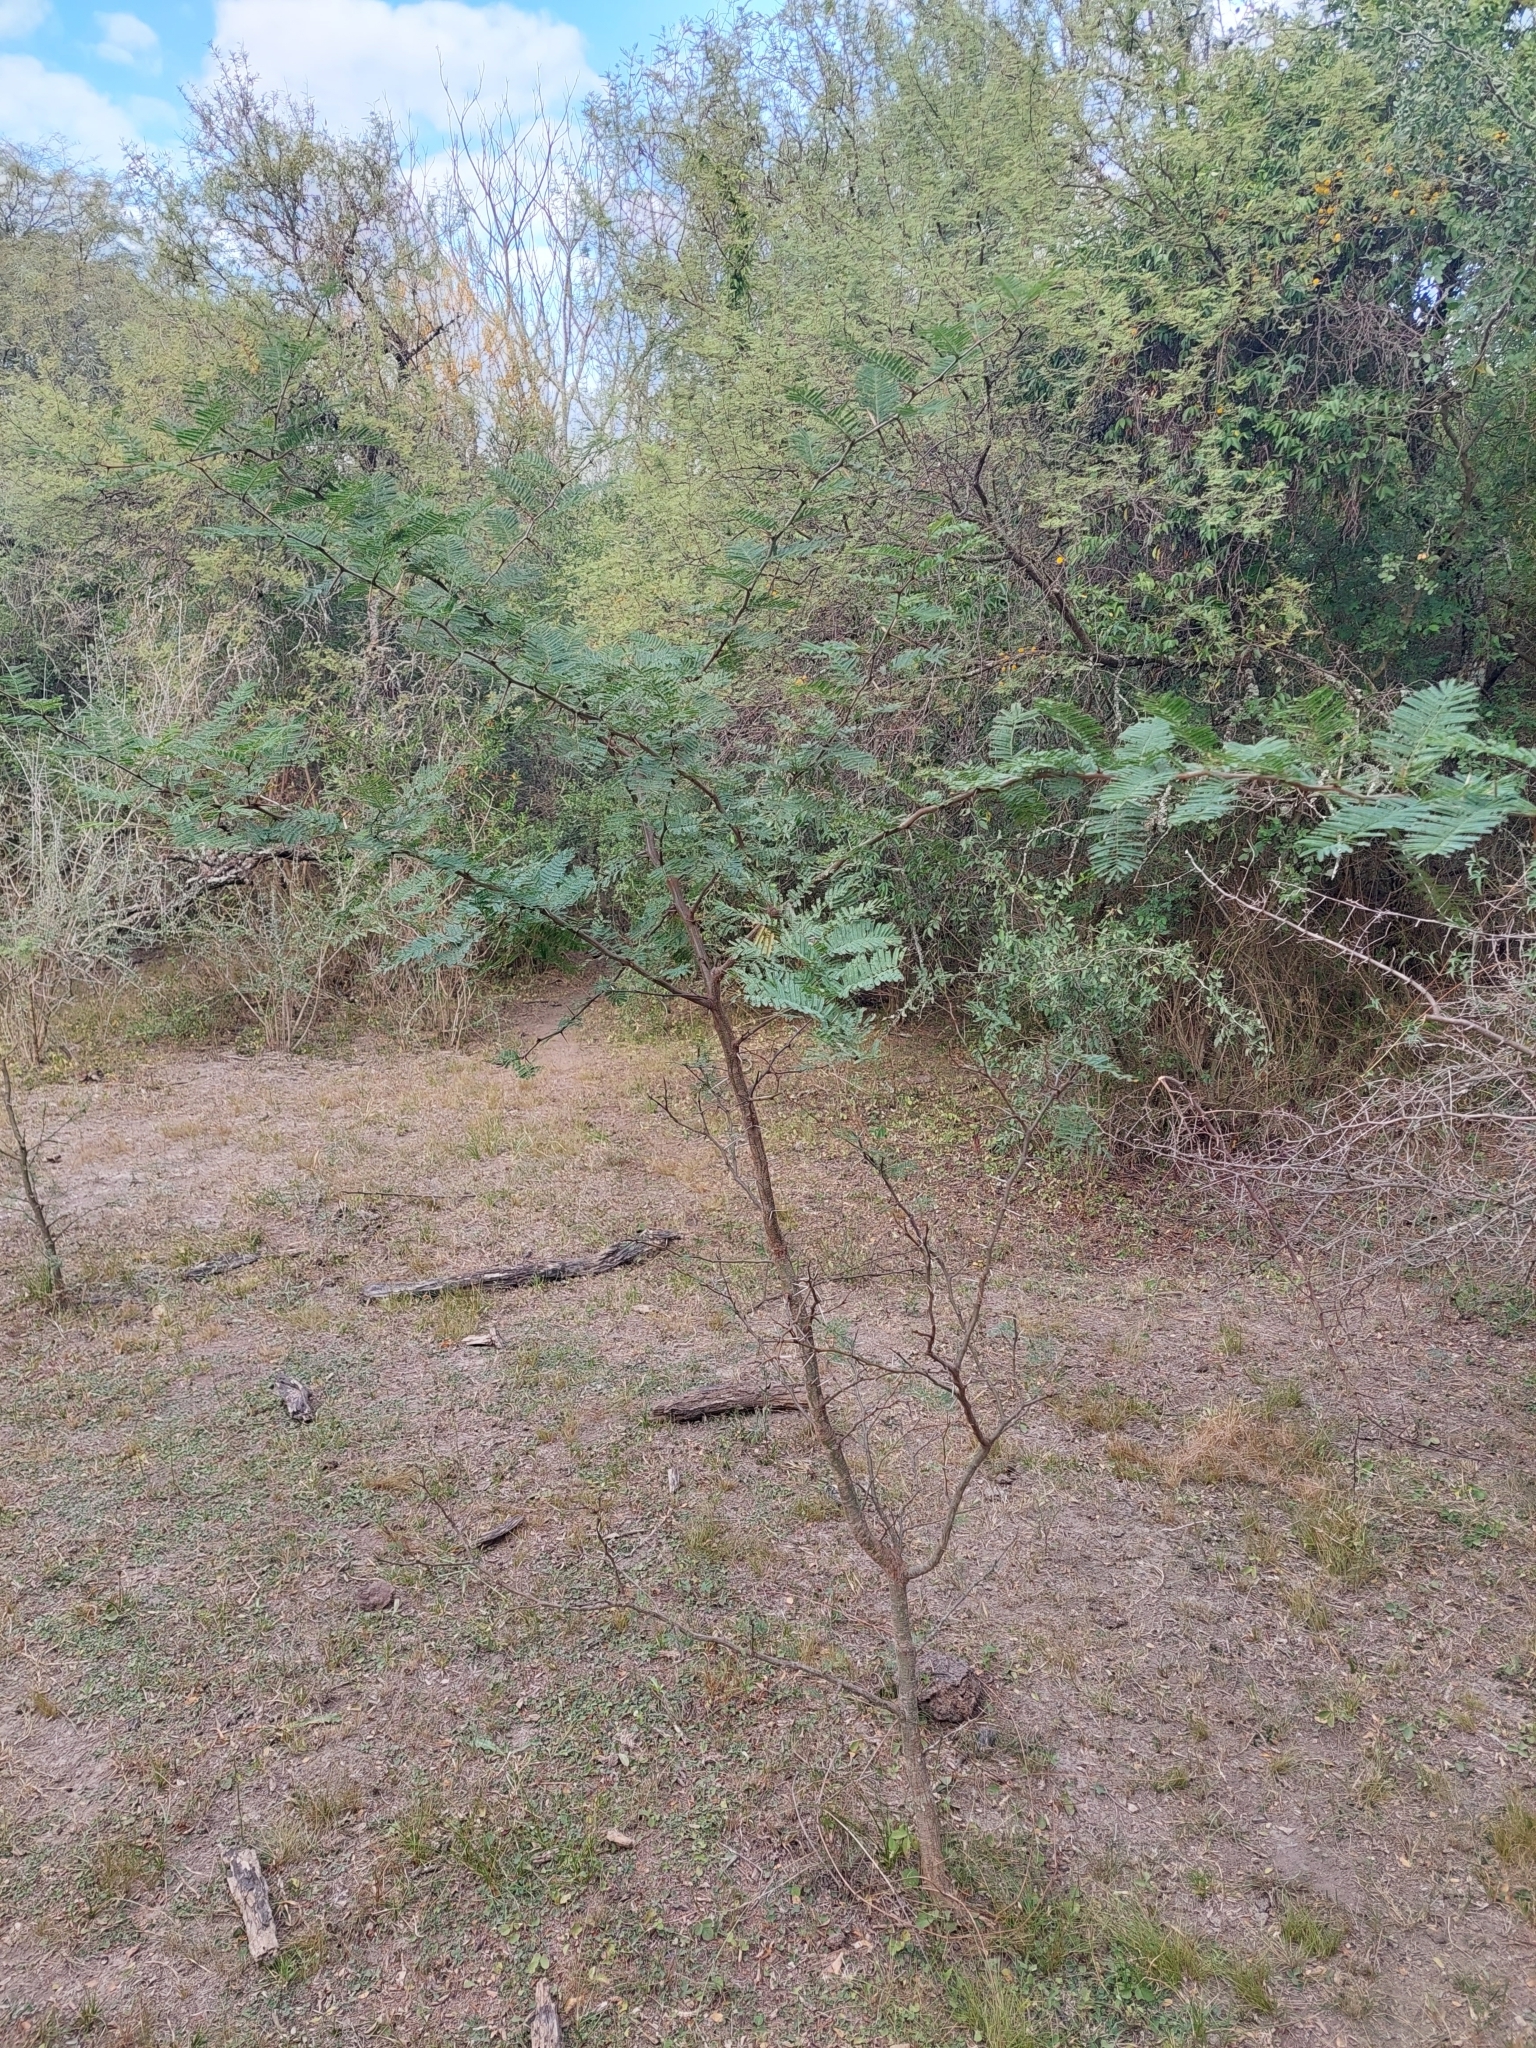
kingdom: Plantae
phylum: Tracheophyta
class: Magnoliopsida
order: Fabales
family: Fabaceae
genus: Vachellia
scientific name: Vachellia aroma
